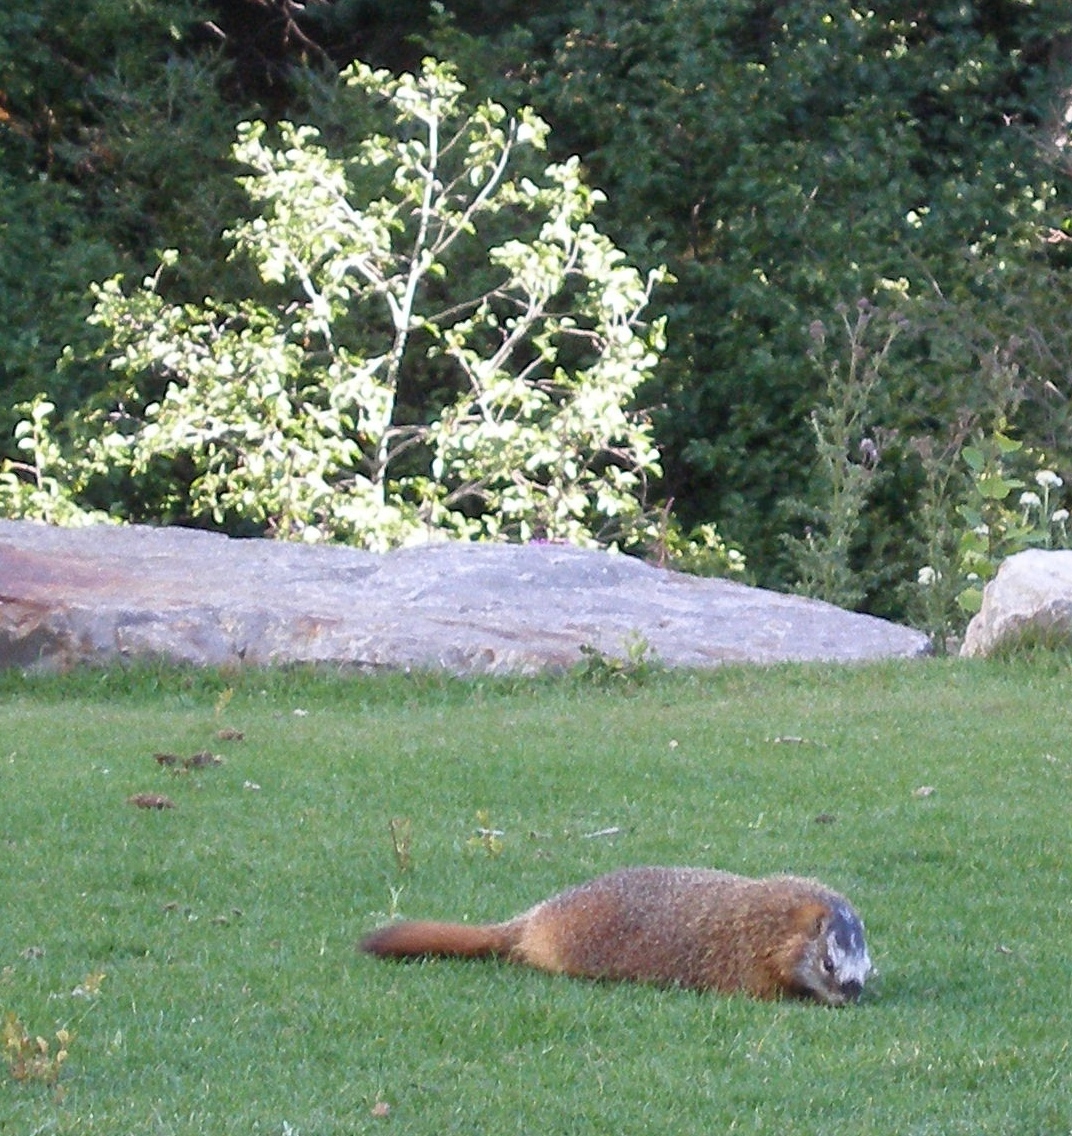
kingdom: Animalia
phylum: Chordata
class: Mammalia
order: Rodentia
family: Sciuridae
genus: Marmota
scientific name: Marmota flaviventris
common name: Yellow-bellied marmot
